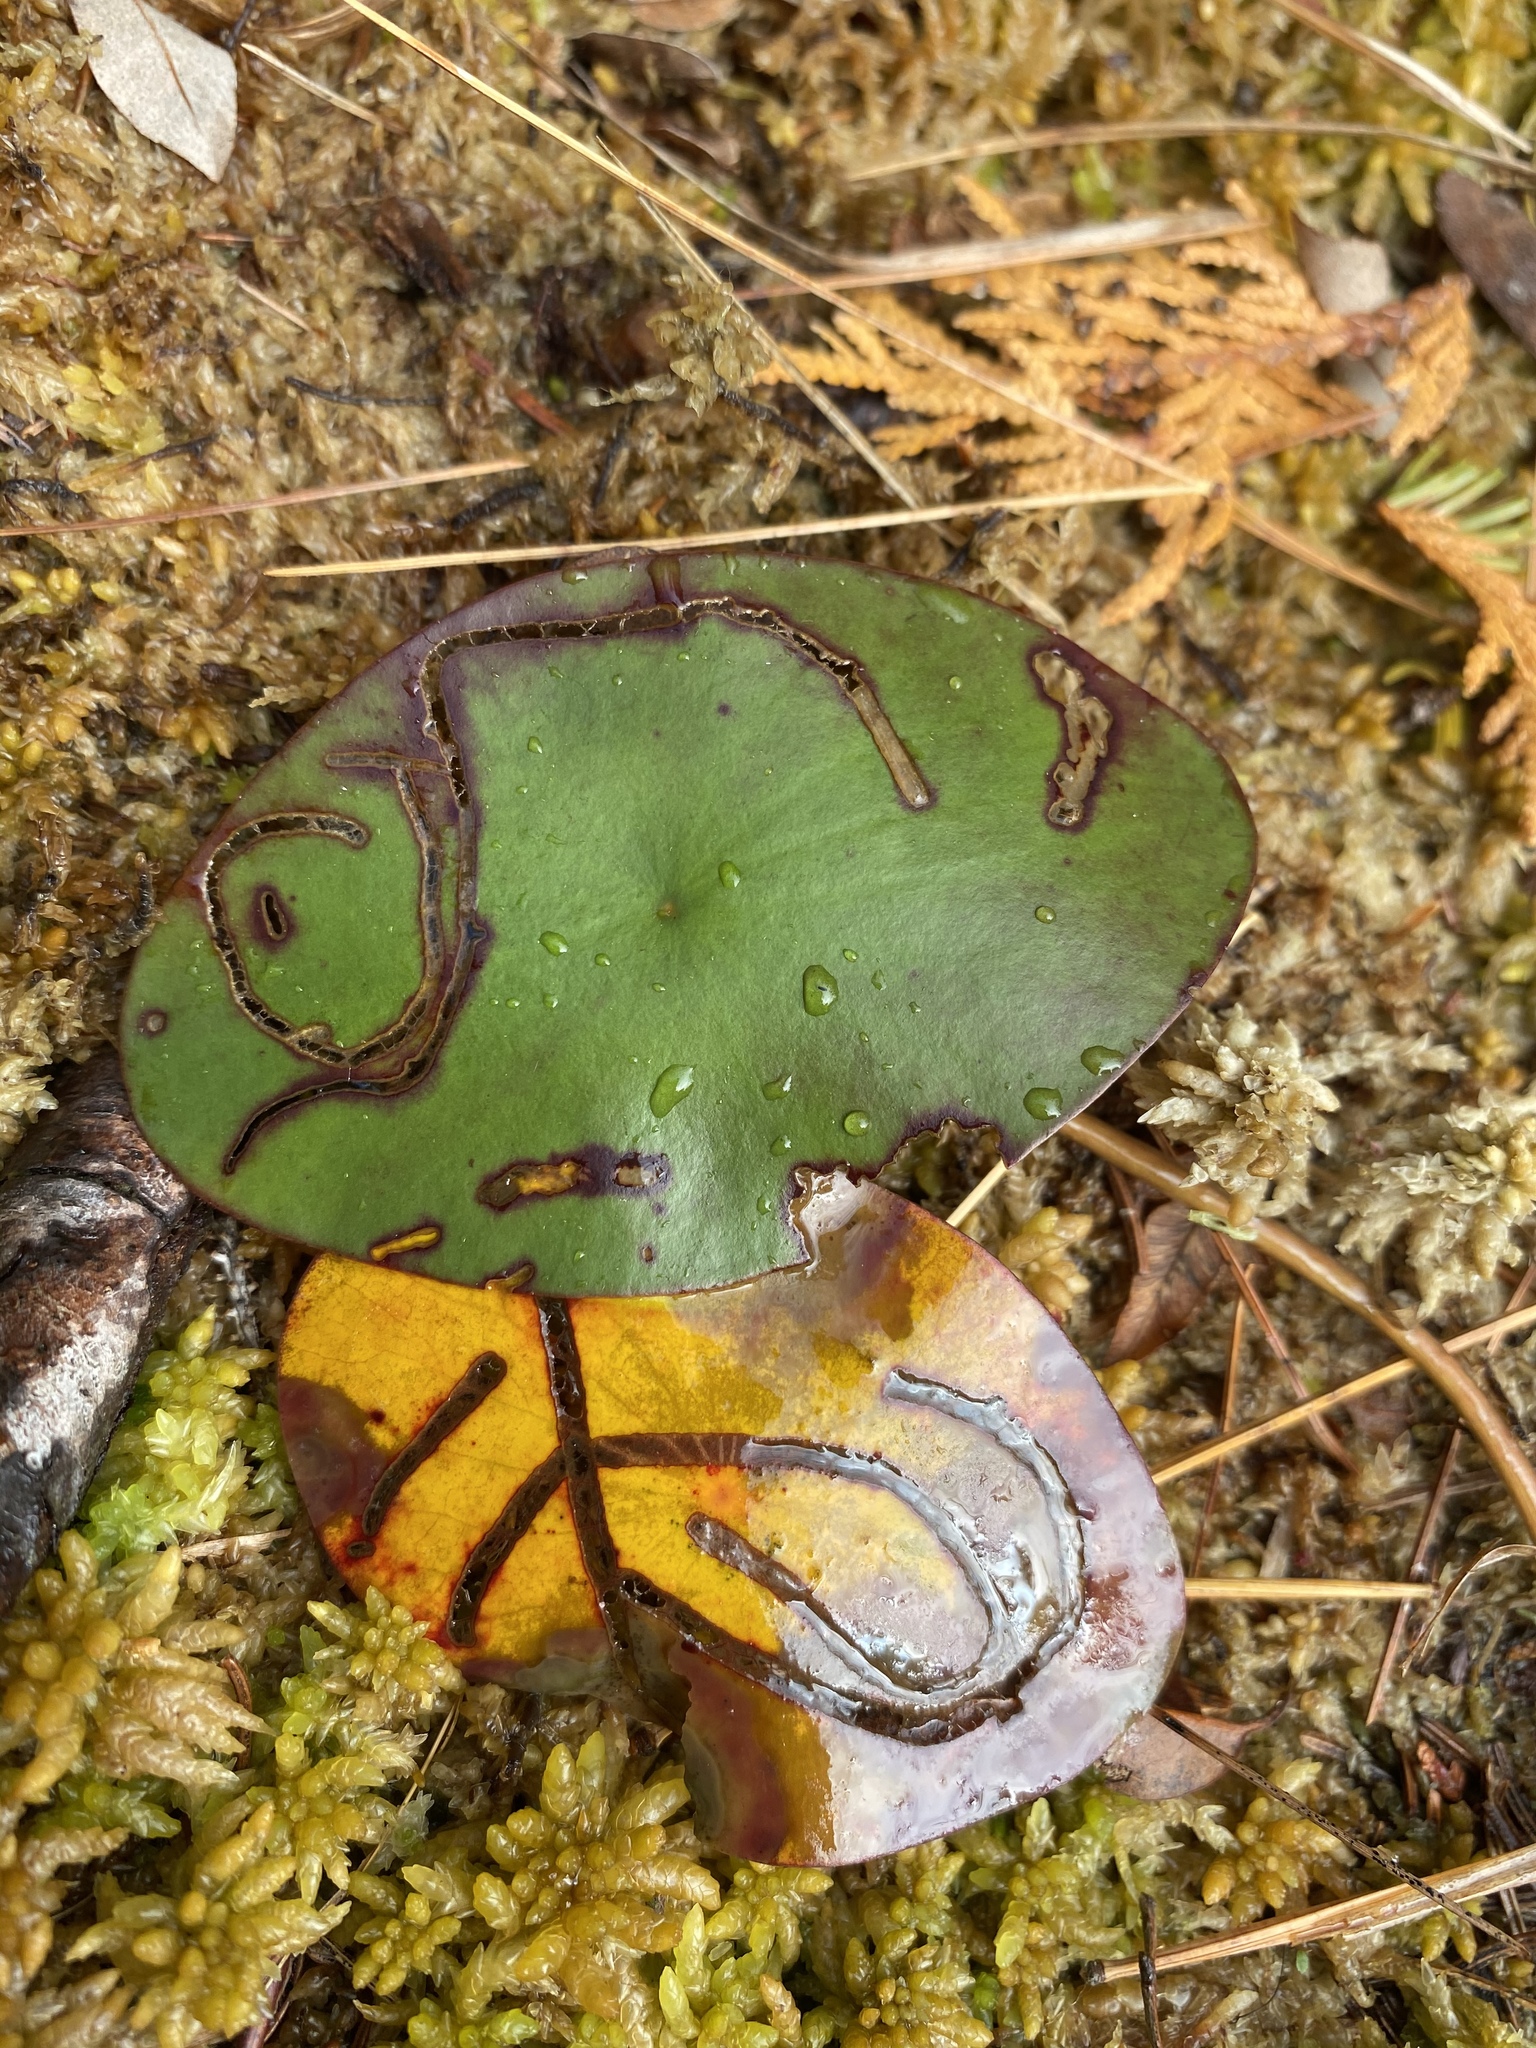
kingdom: Animalia
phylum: Arthropoda
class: Insecta
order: Diptera
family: Chironomidae
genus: Polypedilum
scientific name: Polypedilum braseniae
